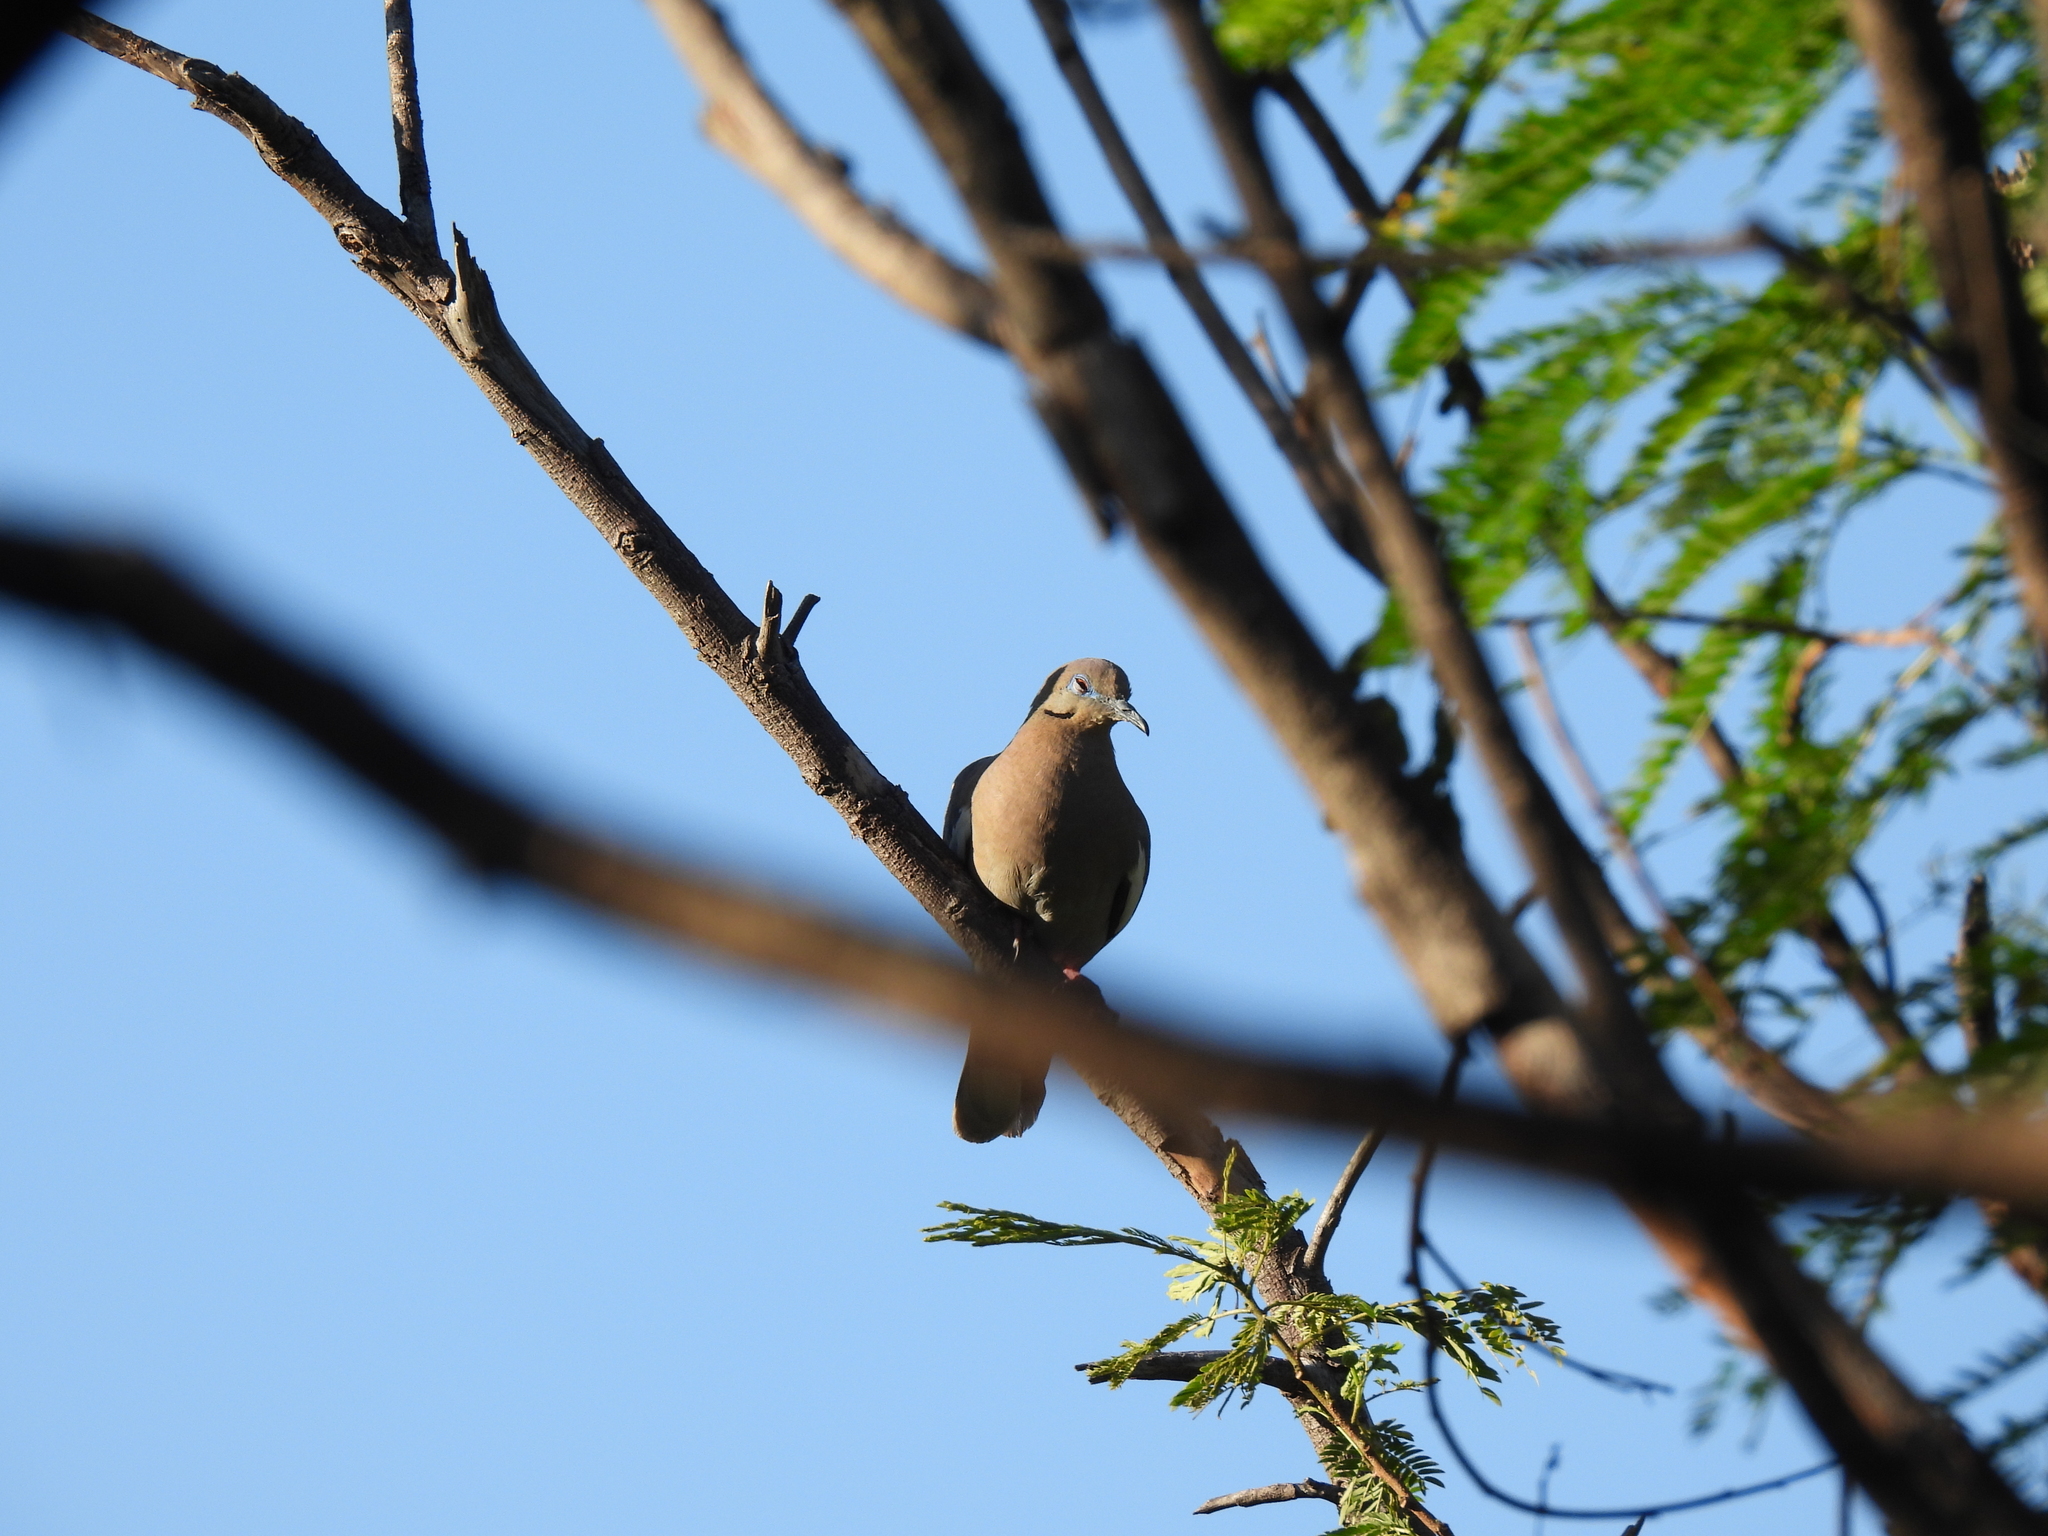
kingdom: Animalia
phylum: Chordata
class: Aves
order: Columbiformes
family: Columbidae
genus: Columbina
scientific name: Columbina inca
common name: Inca dove
